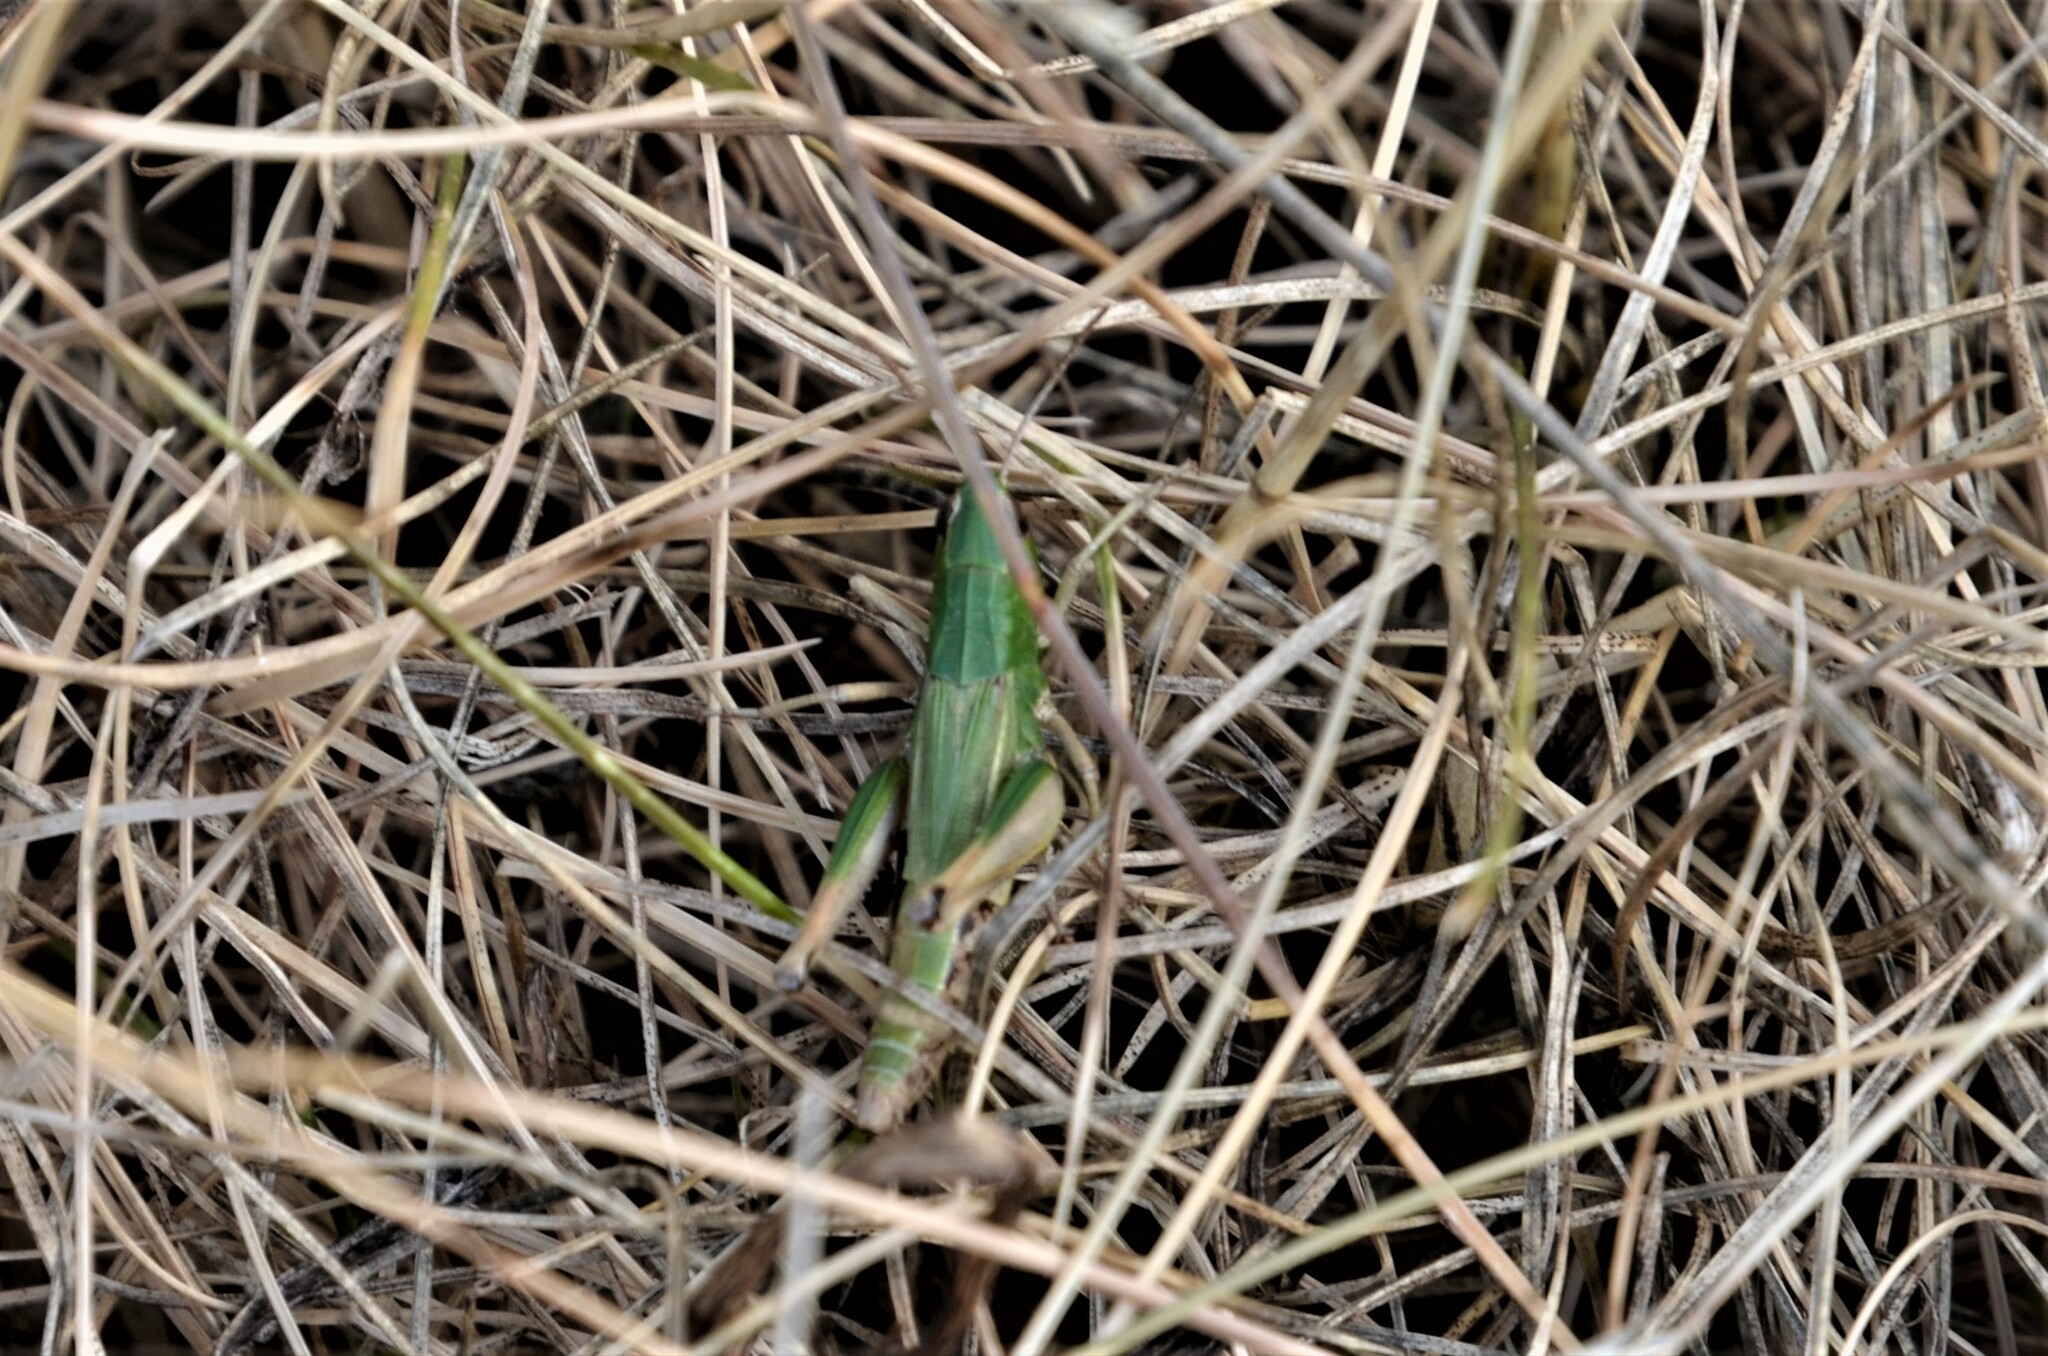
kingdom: Animalia
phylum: Arthropoda
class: Insecta
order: Orthoptera
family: Acrididae
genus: Pseudochorthippus
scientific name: Pseudochorthippus parallelus
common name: Meadow grasshopper
